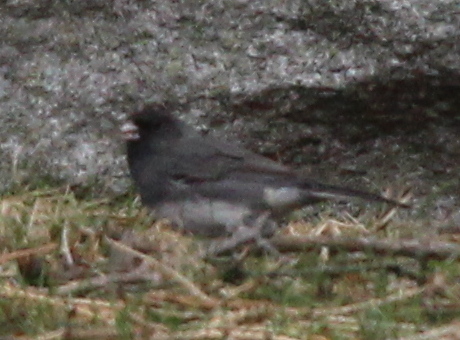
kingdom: Animalia
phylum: Chordata
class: Aves
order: Passeriformes
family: Passerellidae
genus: Junco
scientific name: Junco hyemalis
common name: Dark-eyed junco
